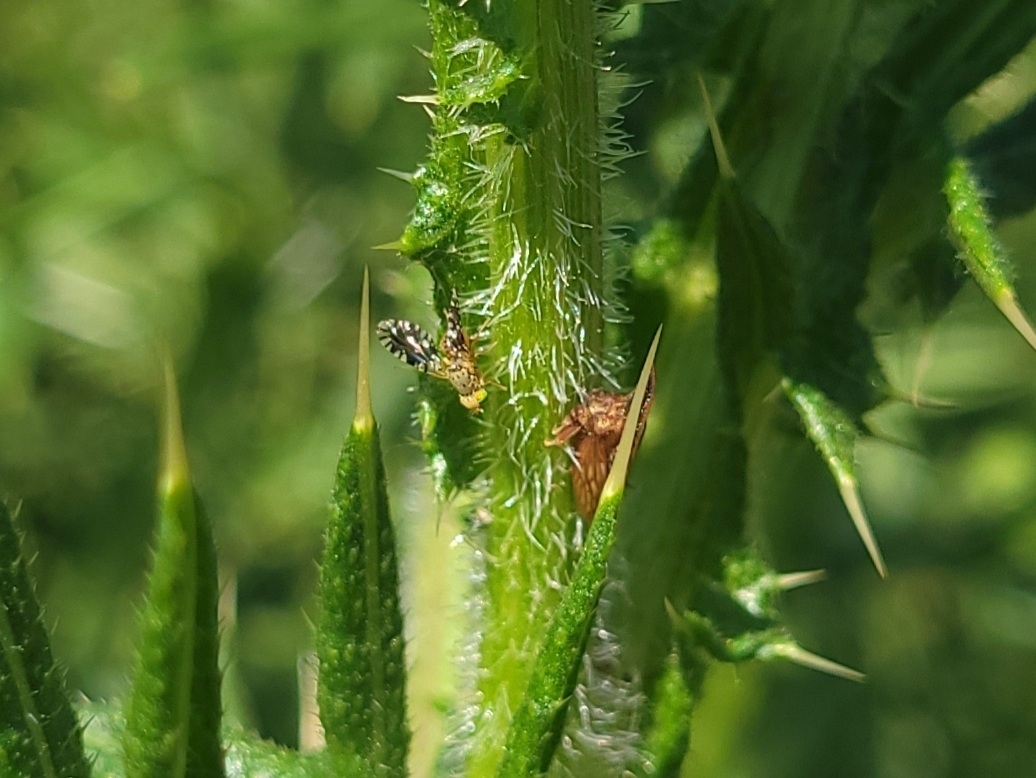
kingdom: Animalia
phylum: Arthropoda
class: Insecta
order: Hemiptera
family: Membracidae
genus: Enchenopa
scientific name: Enchenopa latipes
